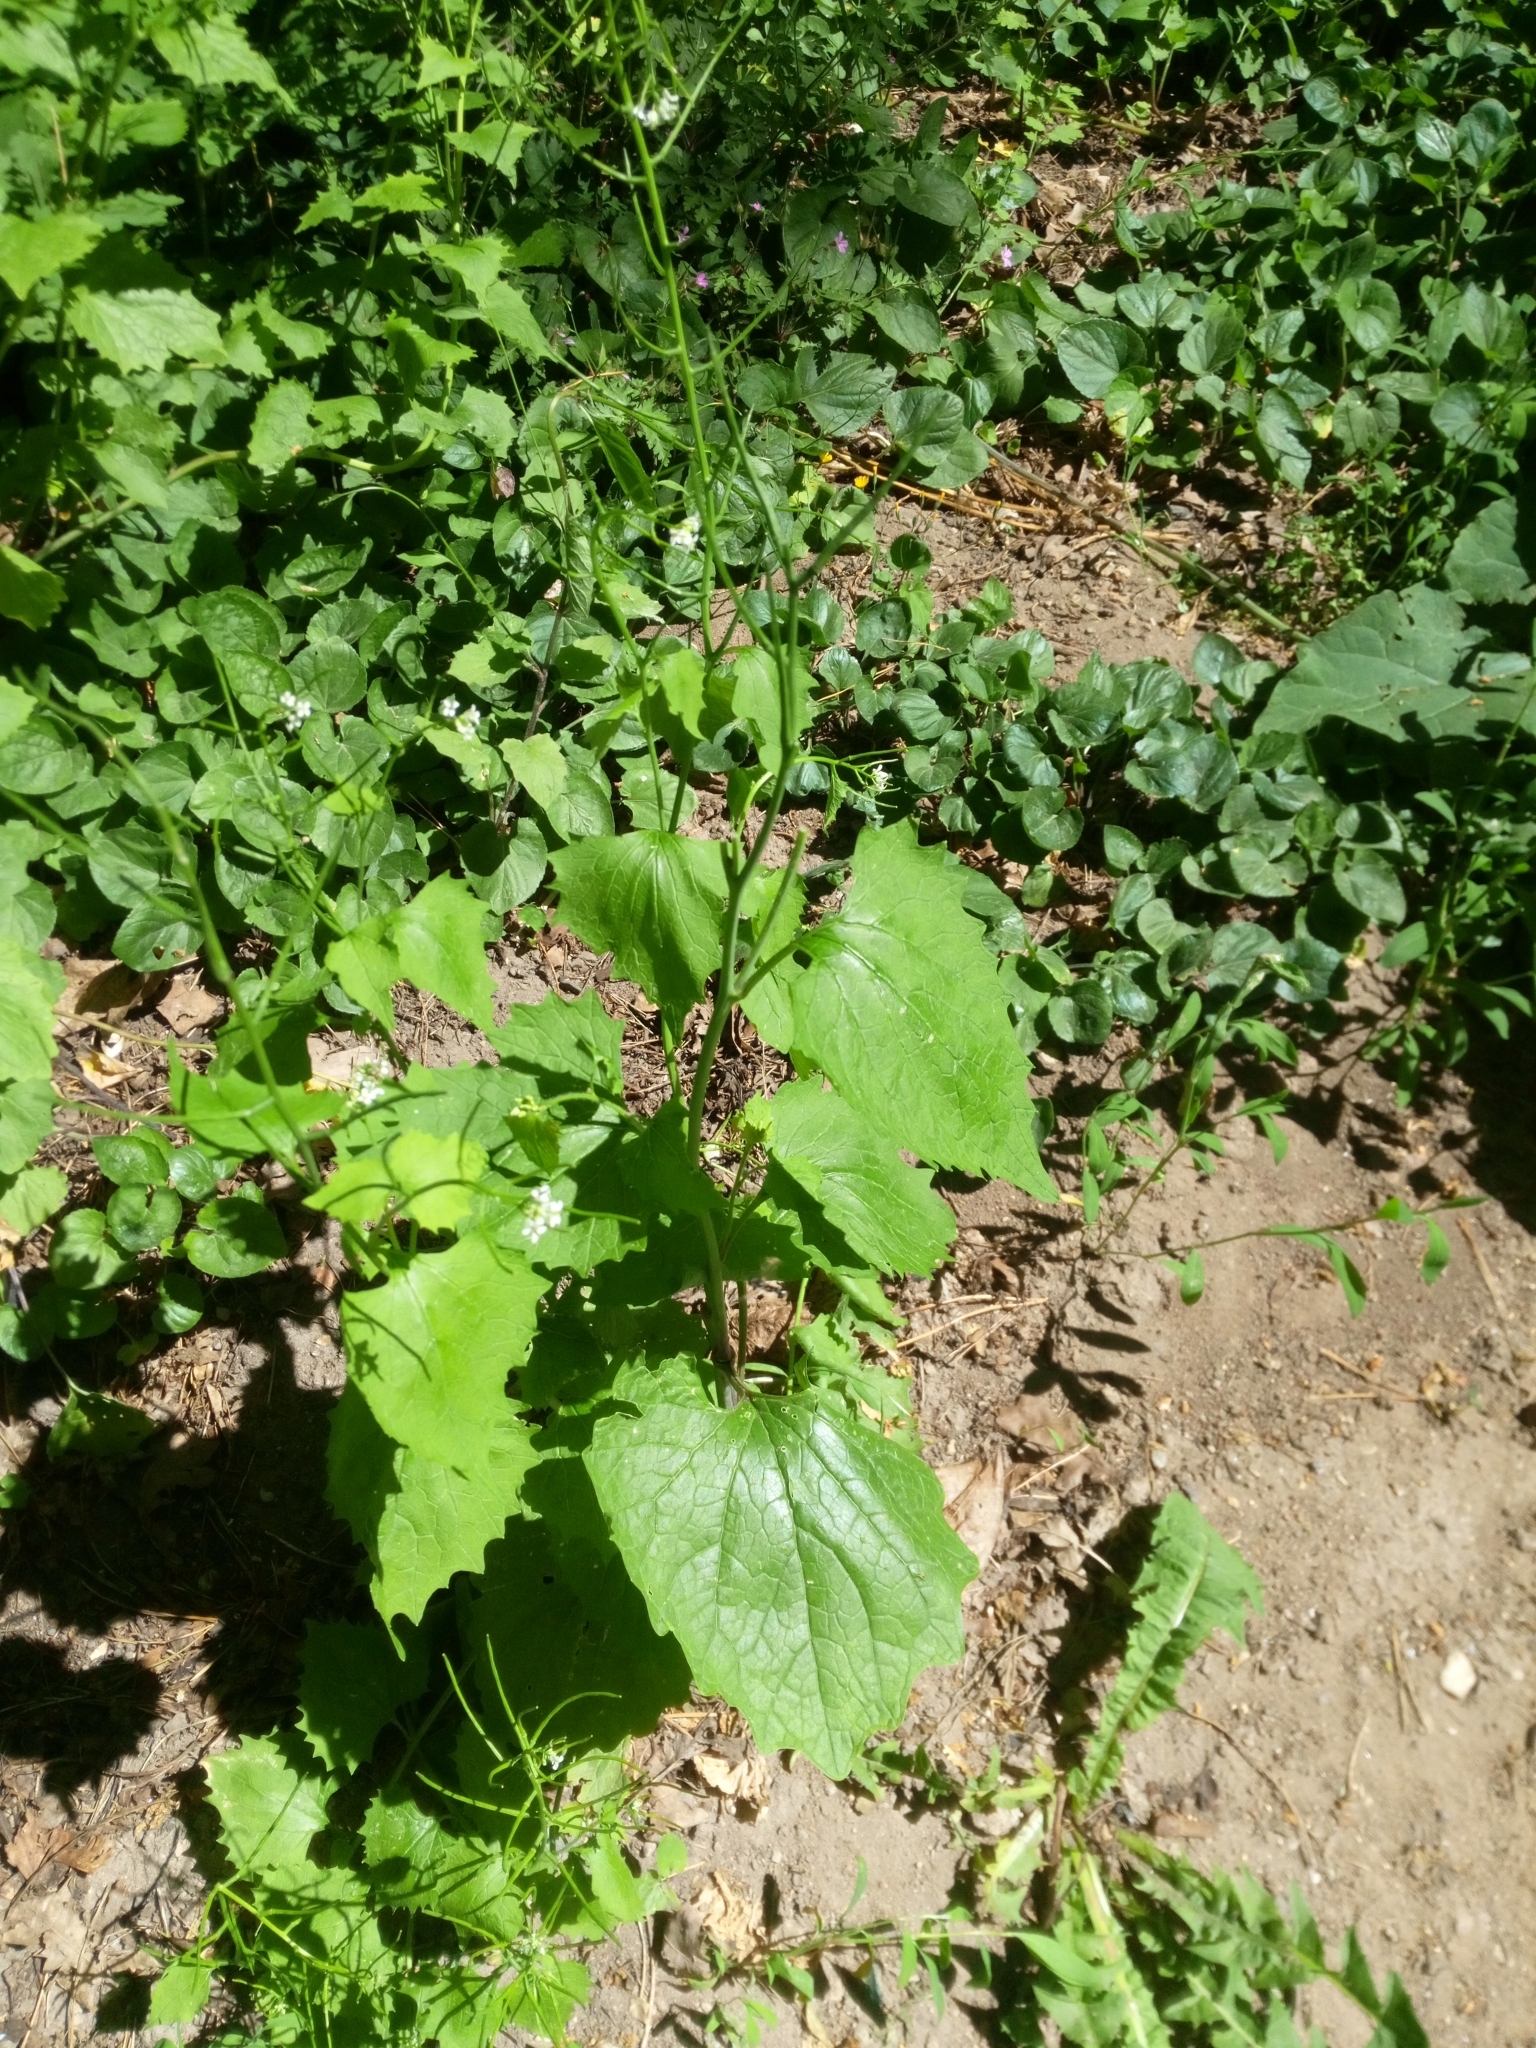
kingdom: Plantae
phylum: Tracheophyta
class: Magnoliopsida
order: Brassicales
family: Brassicaceae
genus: Alliaria
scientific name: Alliaria petiolata
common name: Garlic mustard
